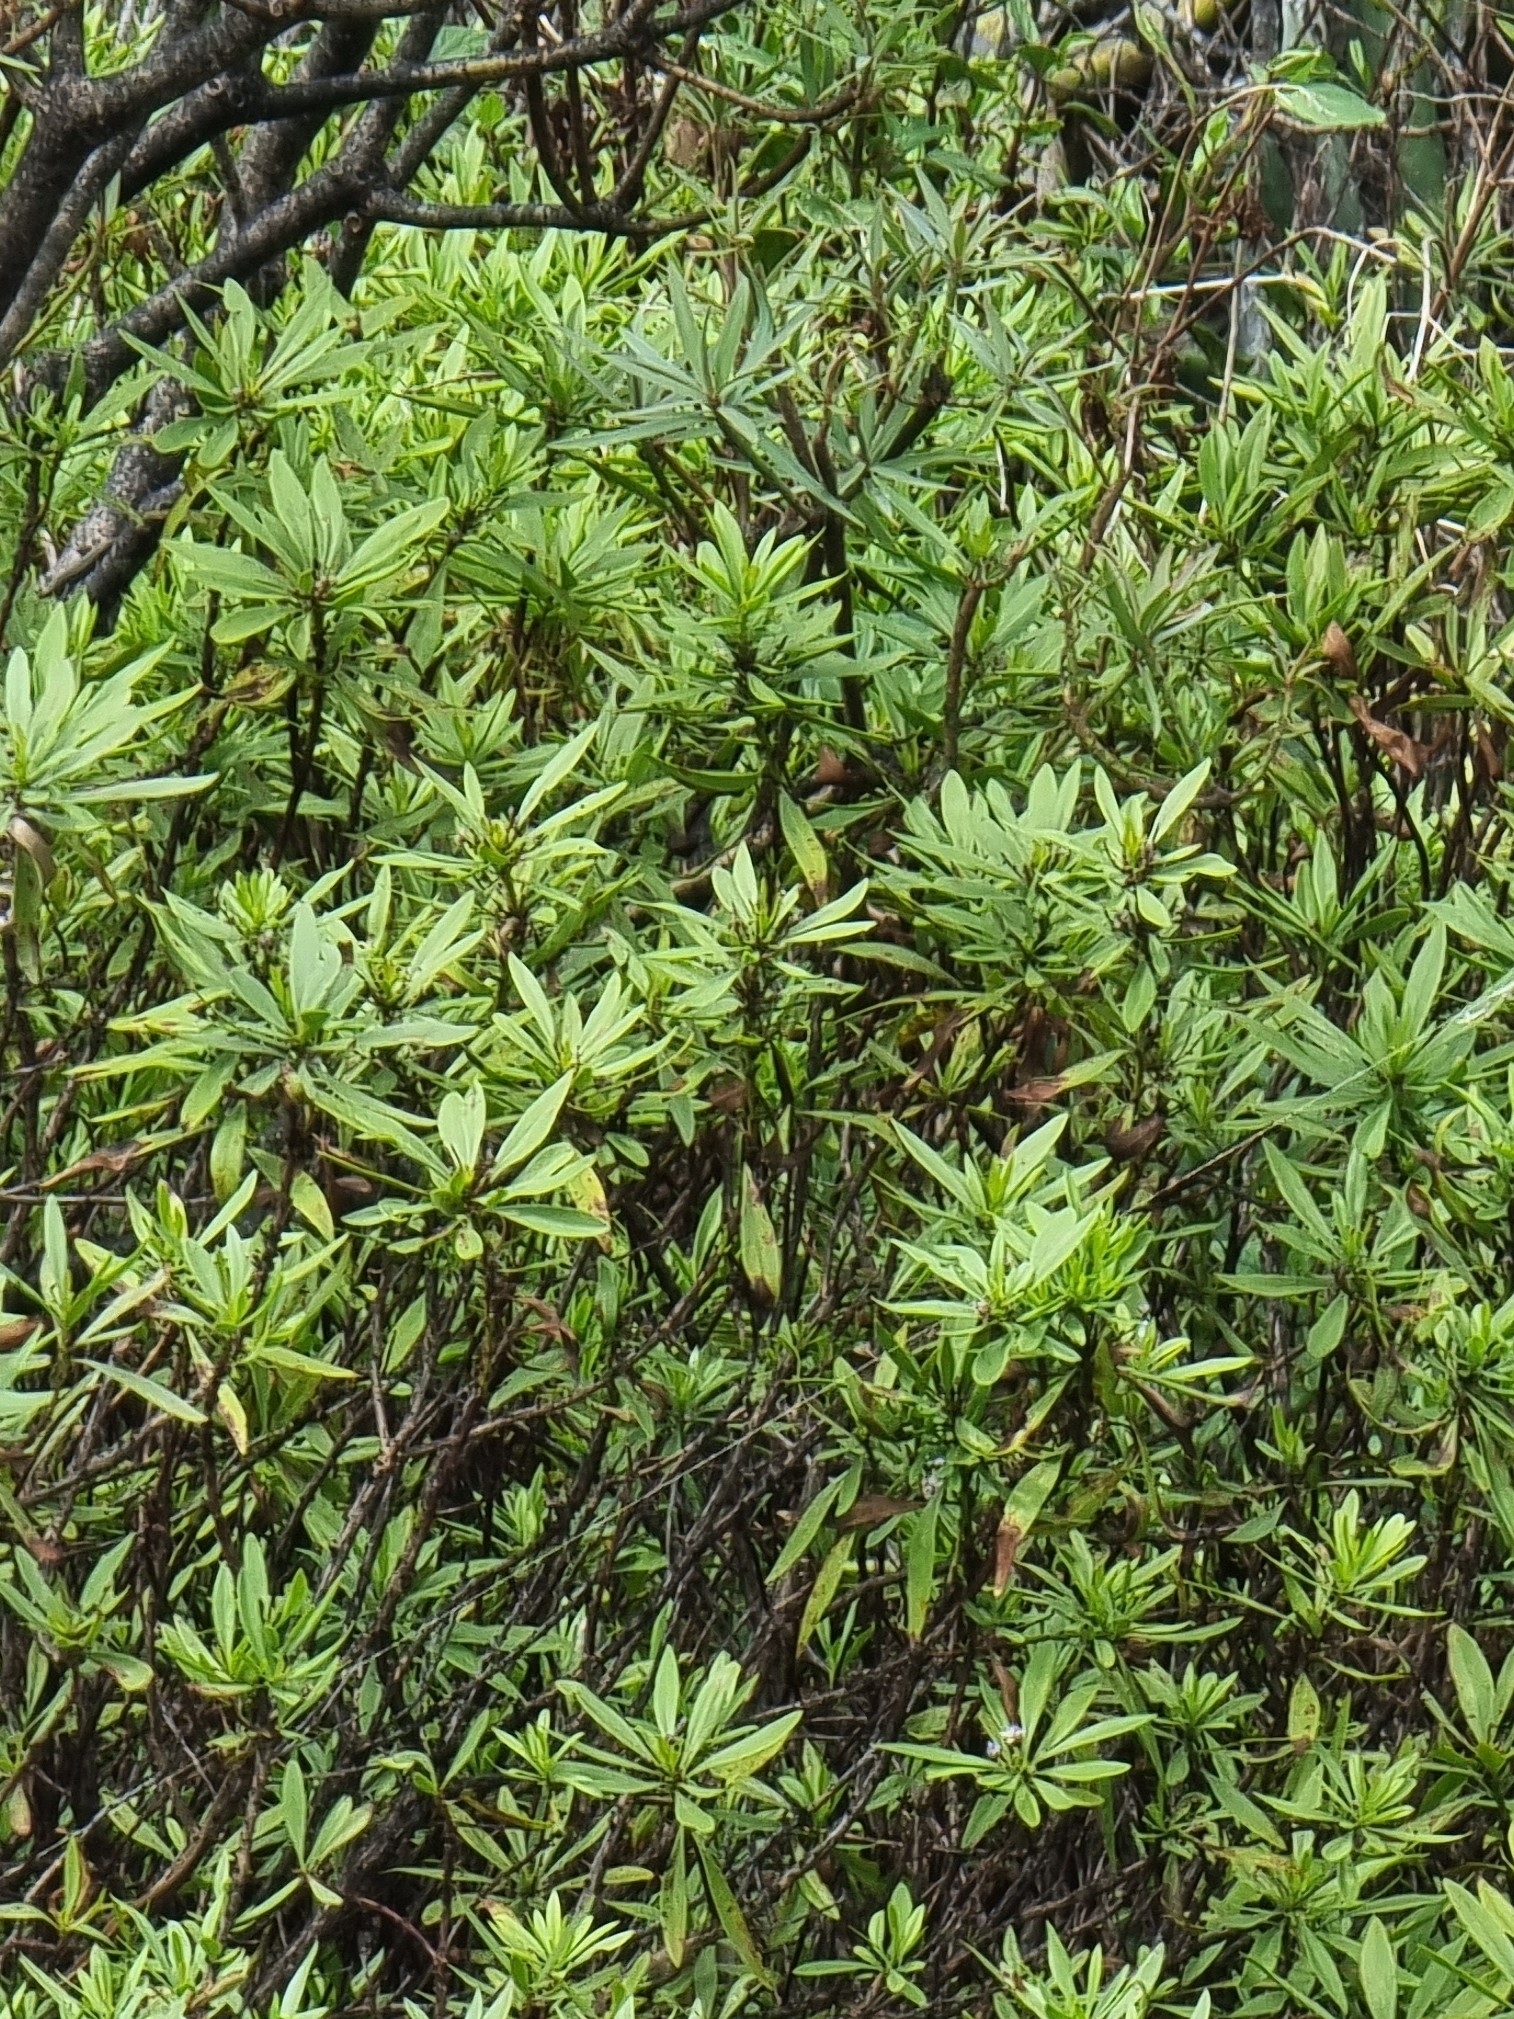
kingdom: Plantae
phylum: Tracheophyta
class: Magnoliopsida
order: Lamiales
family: Plantaginaceae
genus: Globularia
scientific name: Globularia salicina
